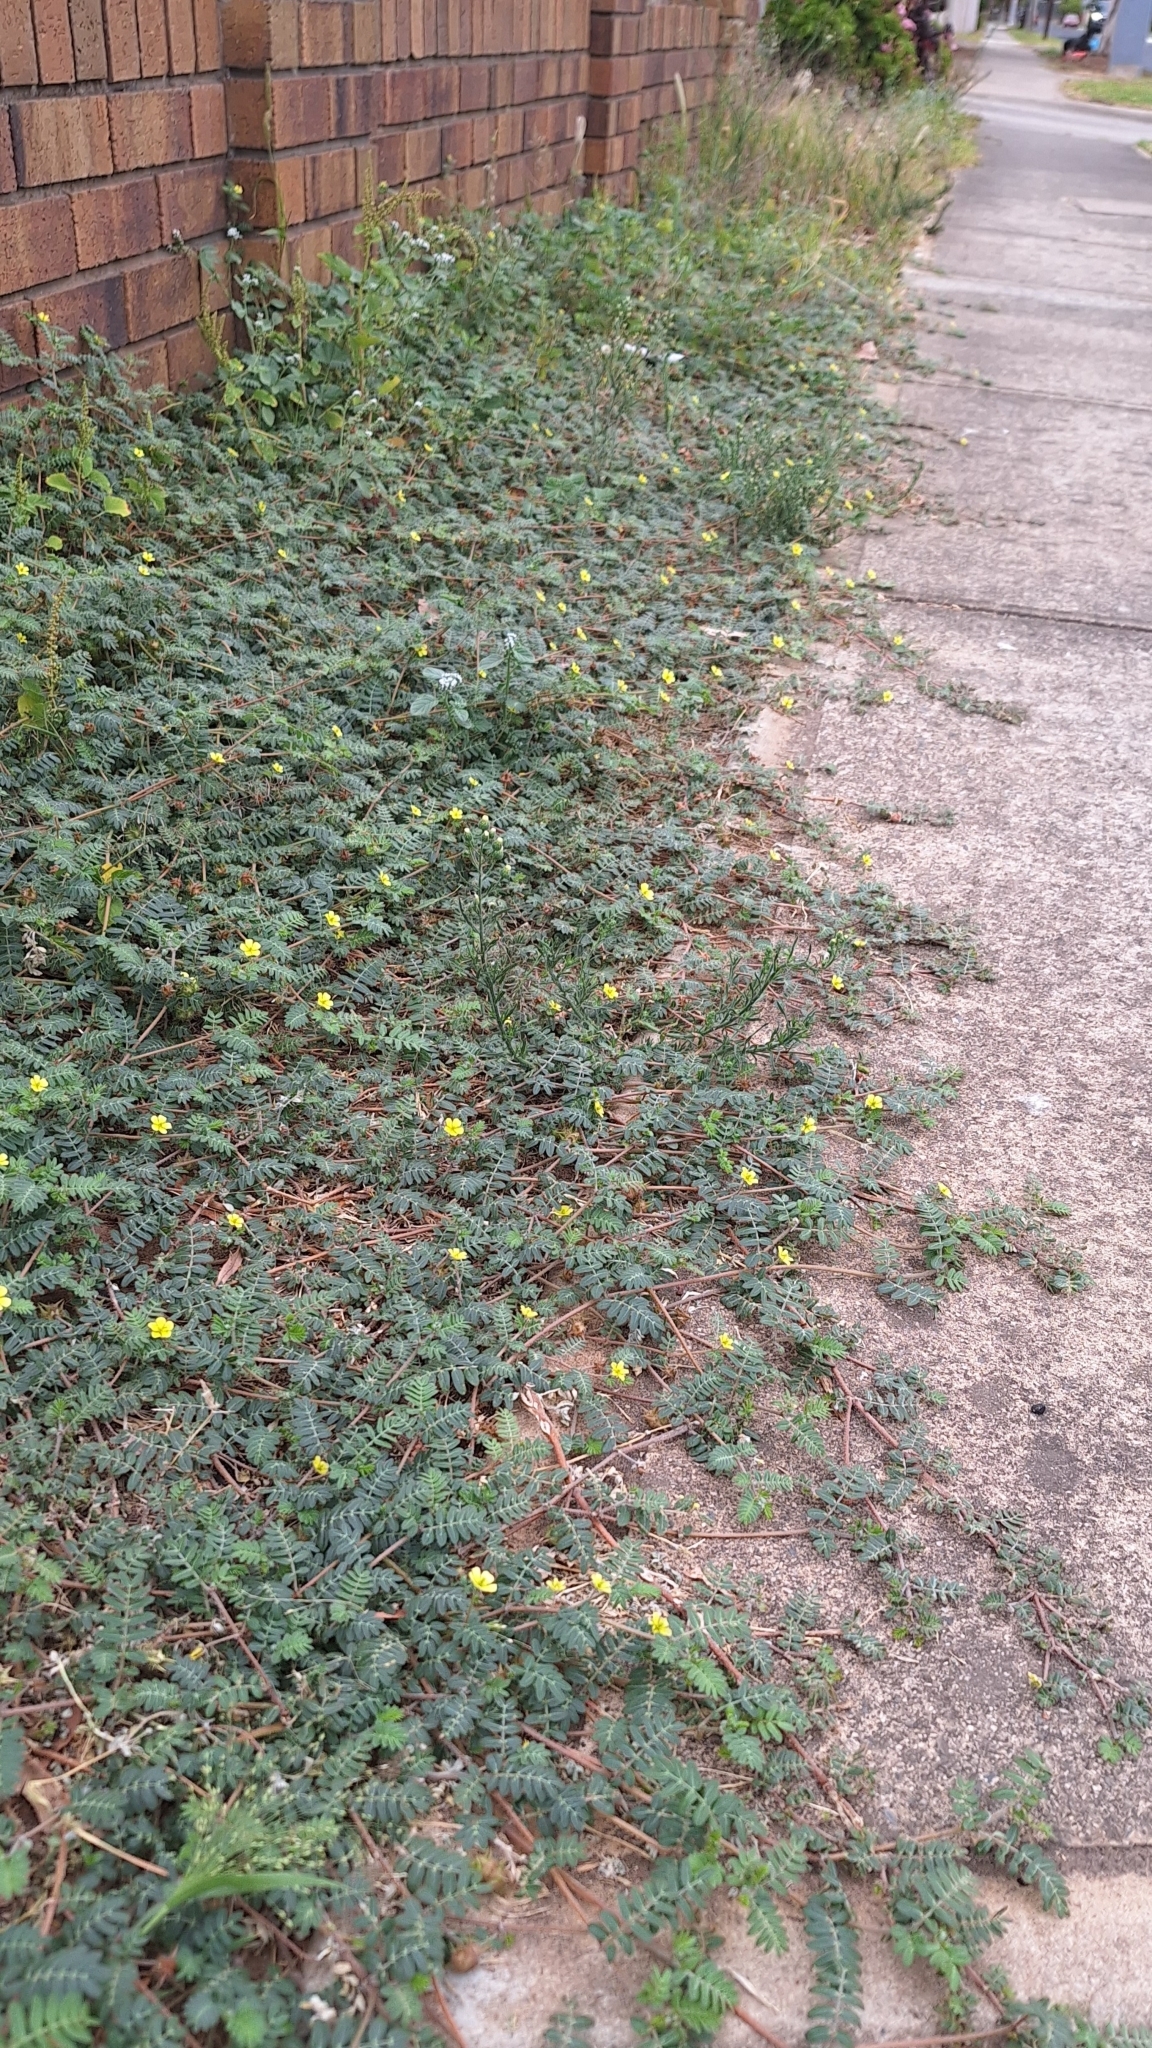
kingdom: Plantae
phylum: Tracheophyta
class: Magnoliopsida
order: Zygophyllales
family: Zygophyllaceae
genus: Tribulus
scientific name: Tribulus terrestris
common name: Puncturevine
